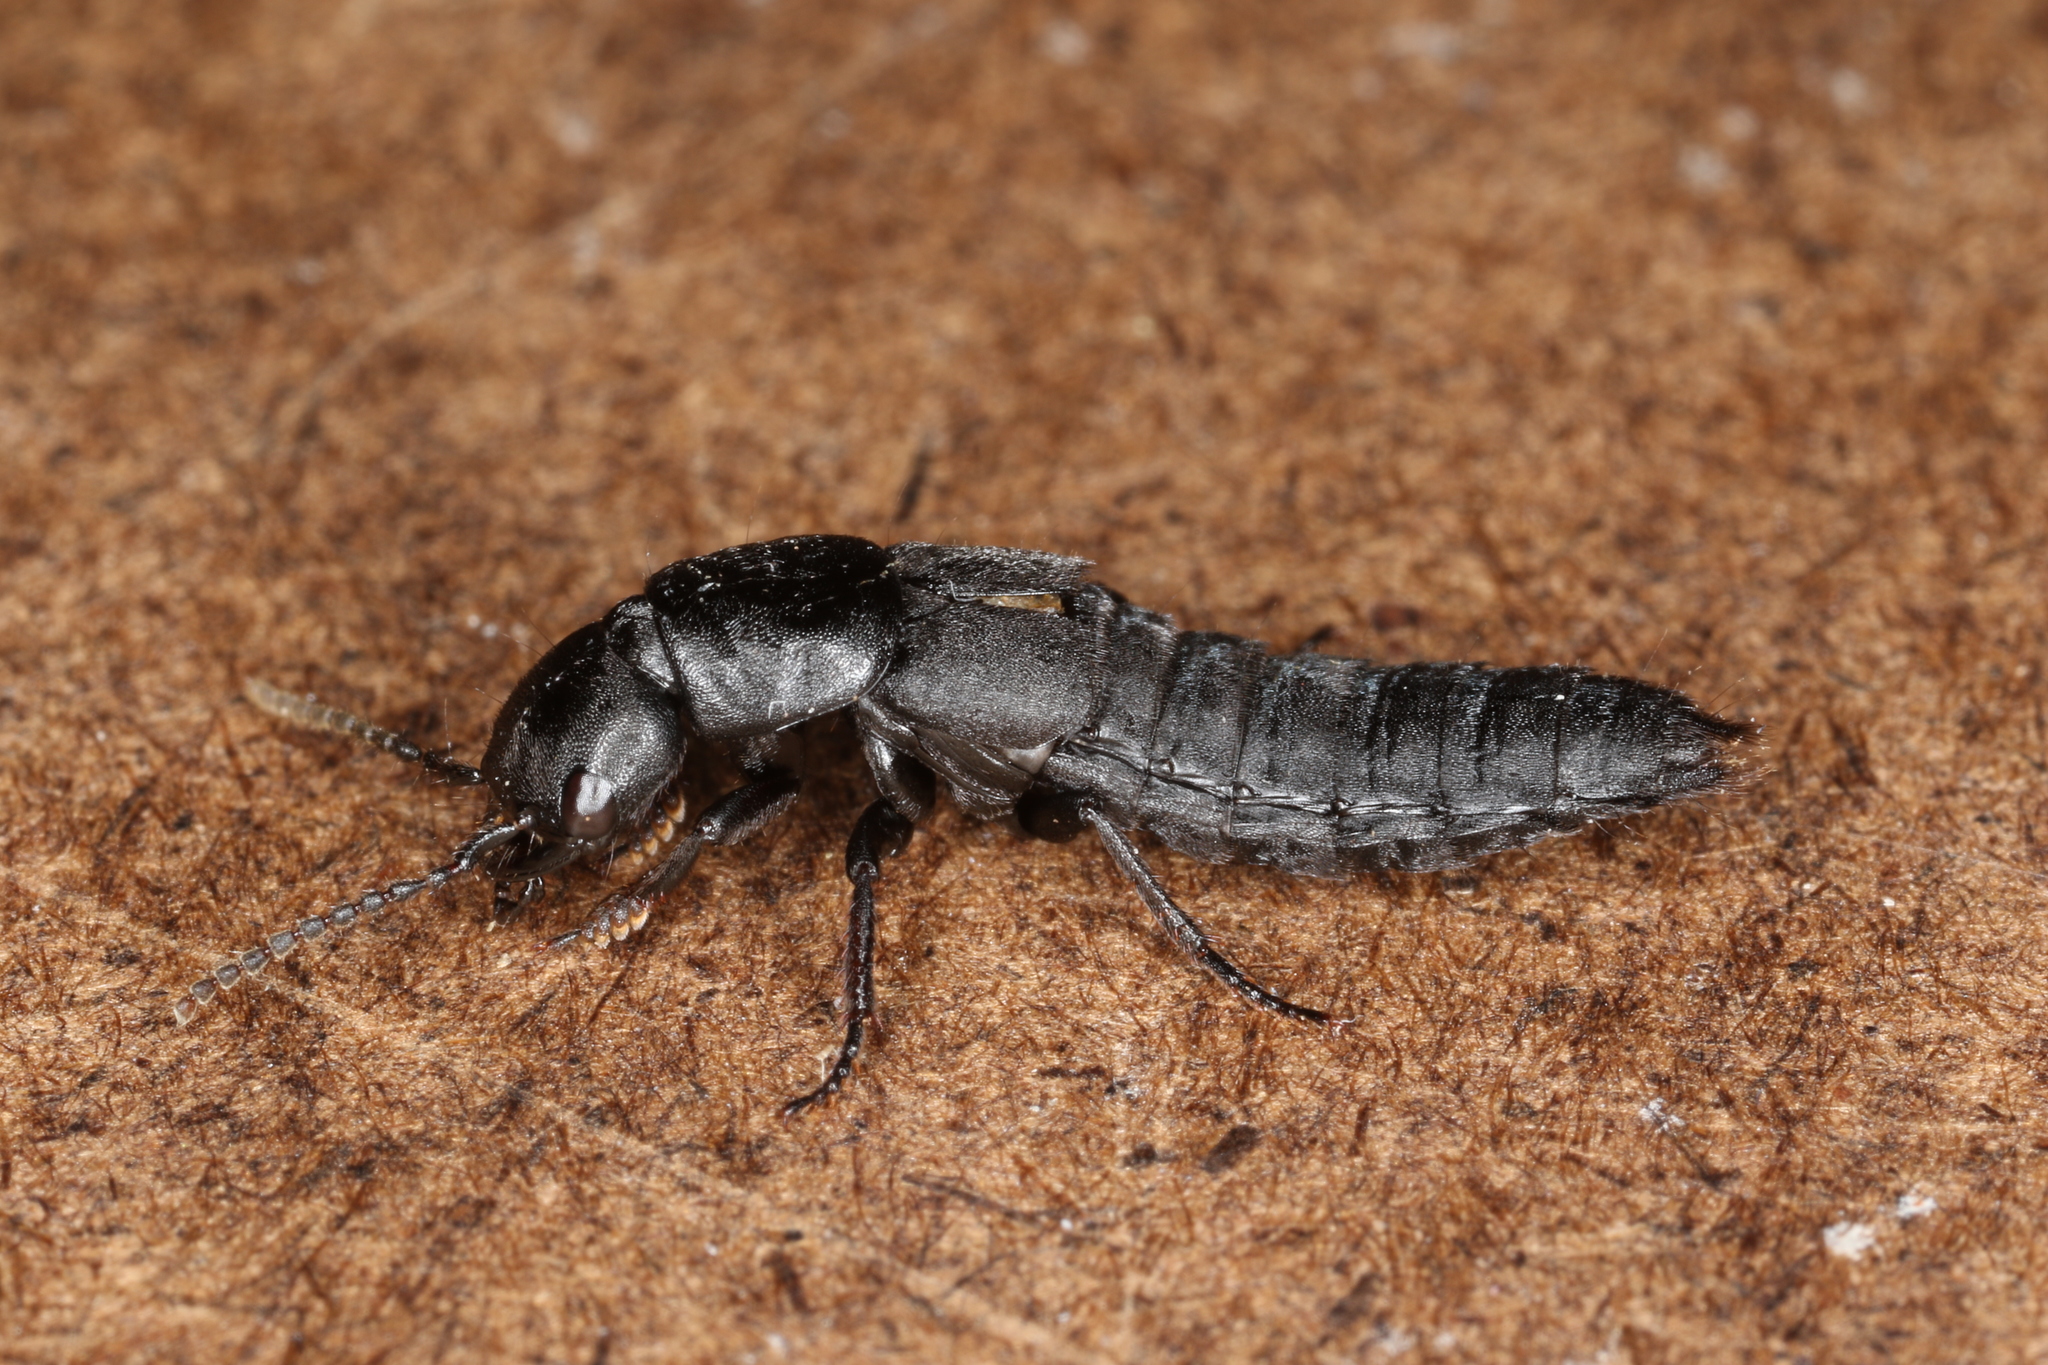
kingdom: Animalia
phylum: Arthropoda
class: Insecta
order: Coleoptera
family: Staphylinidae
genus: Ocypus
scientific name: Ocypus nitens
